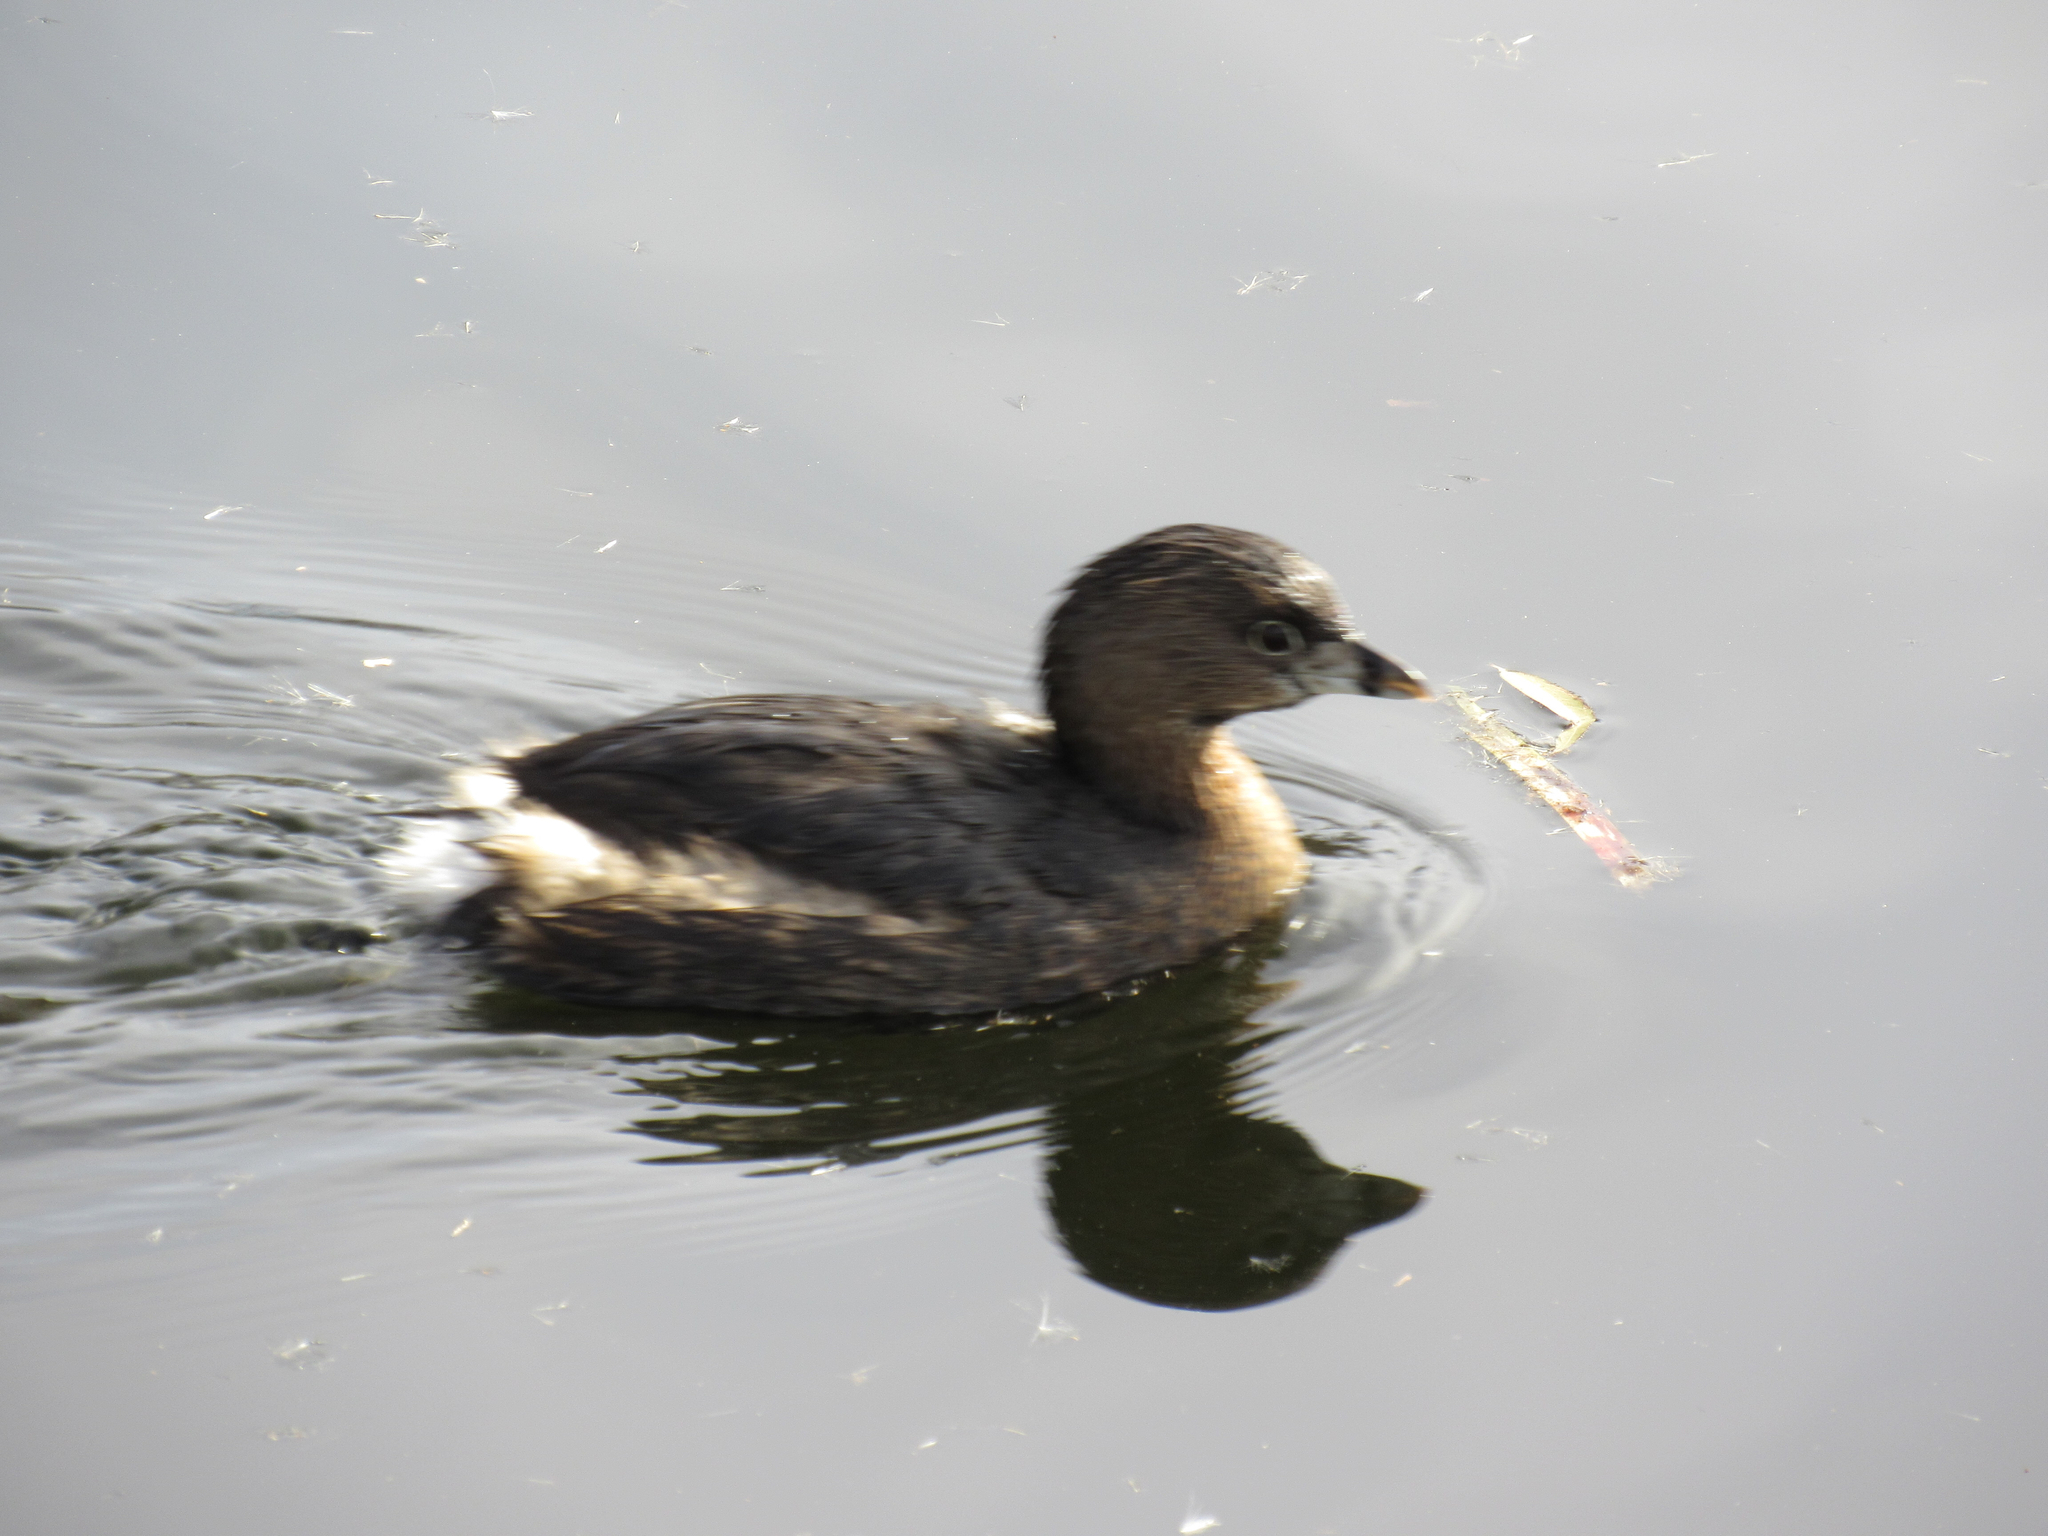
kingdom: Animalia
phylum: Chordata
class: Aves
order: Podicipediformes
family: Podicipedidae
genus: Podilymbus
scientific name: Podilymbus podiceps
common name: Pied-billed grebe
